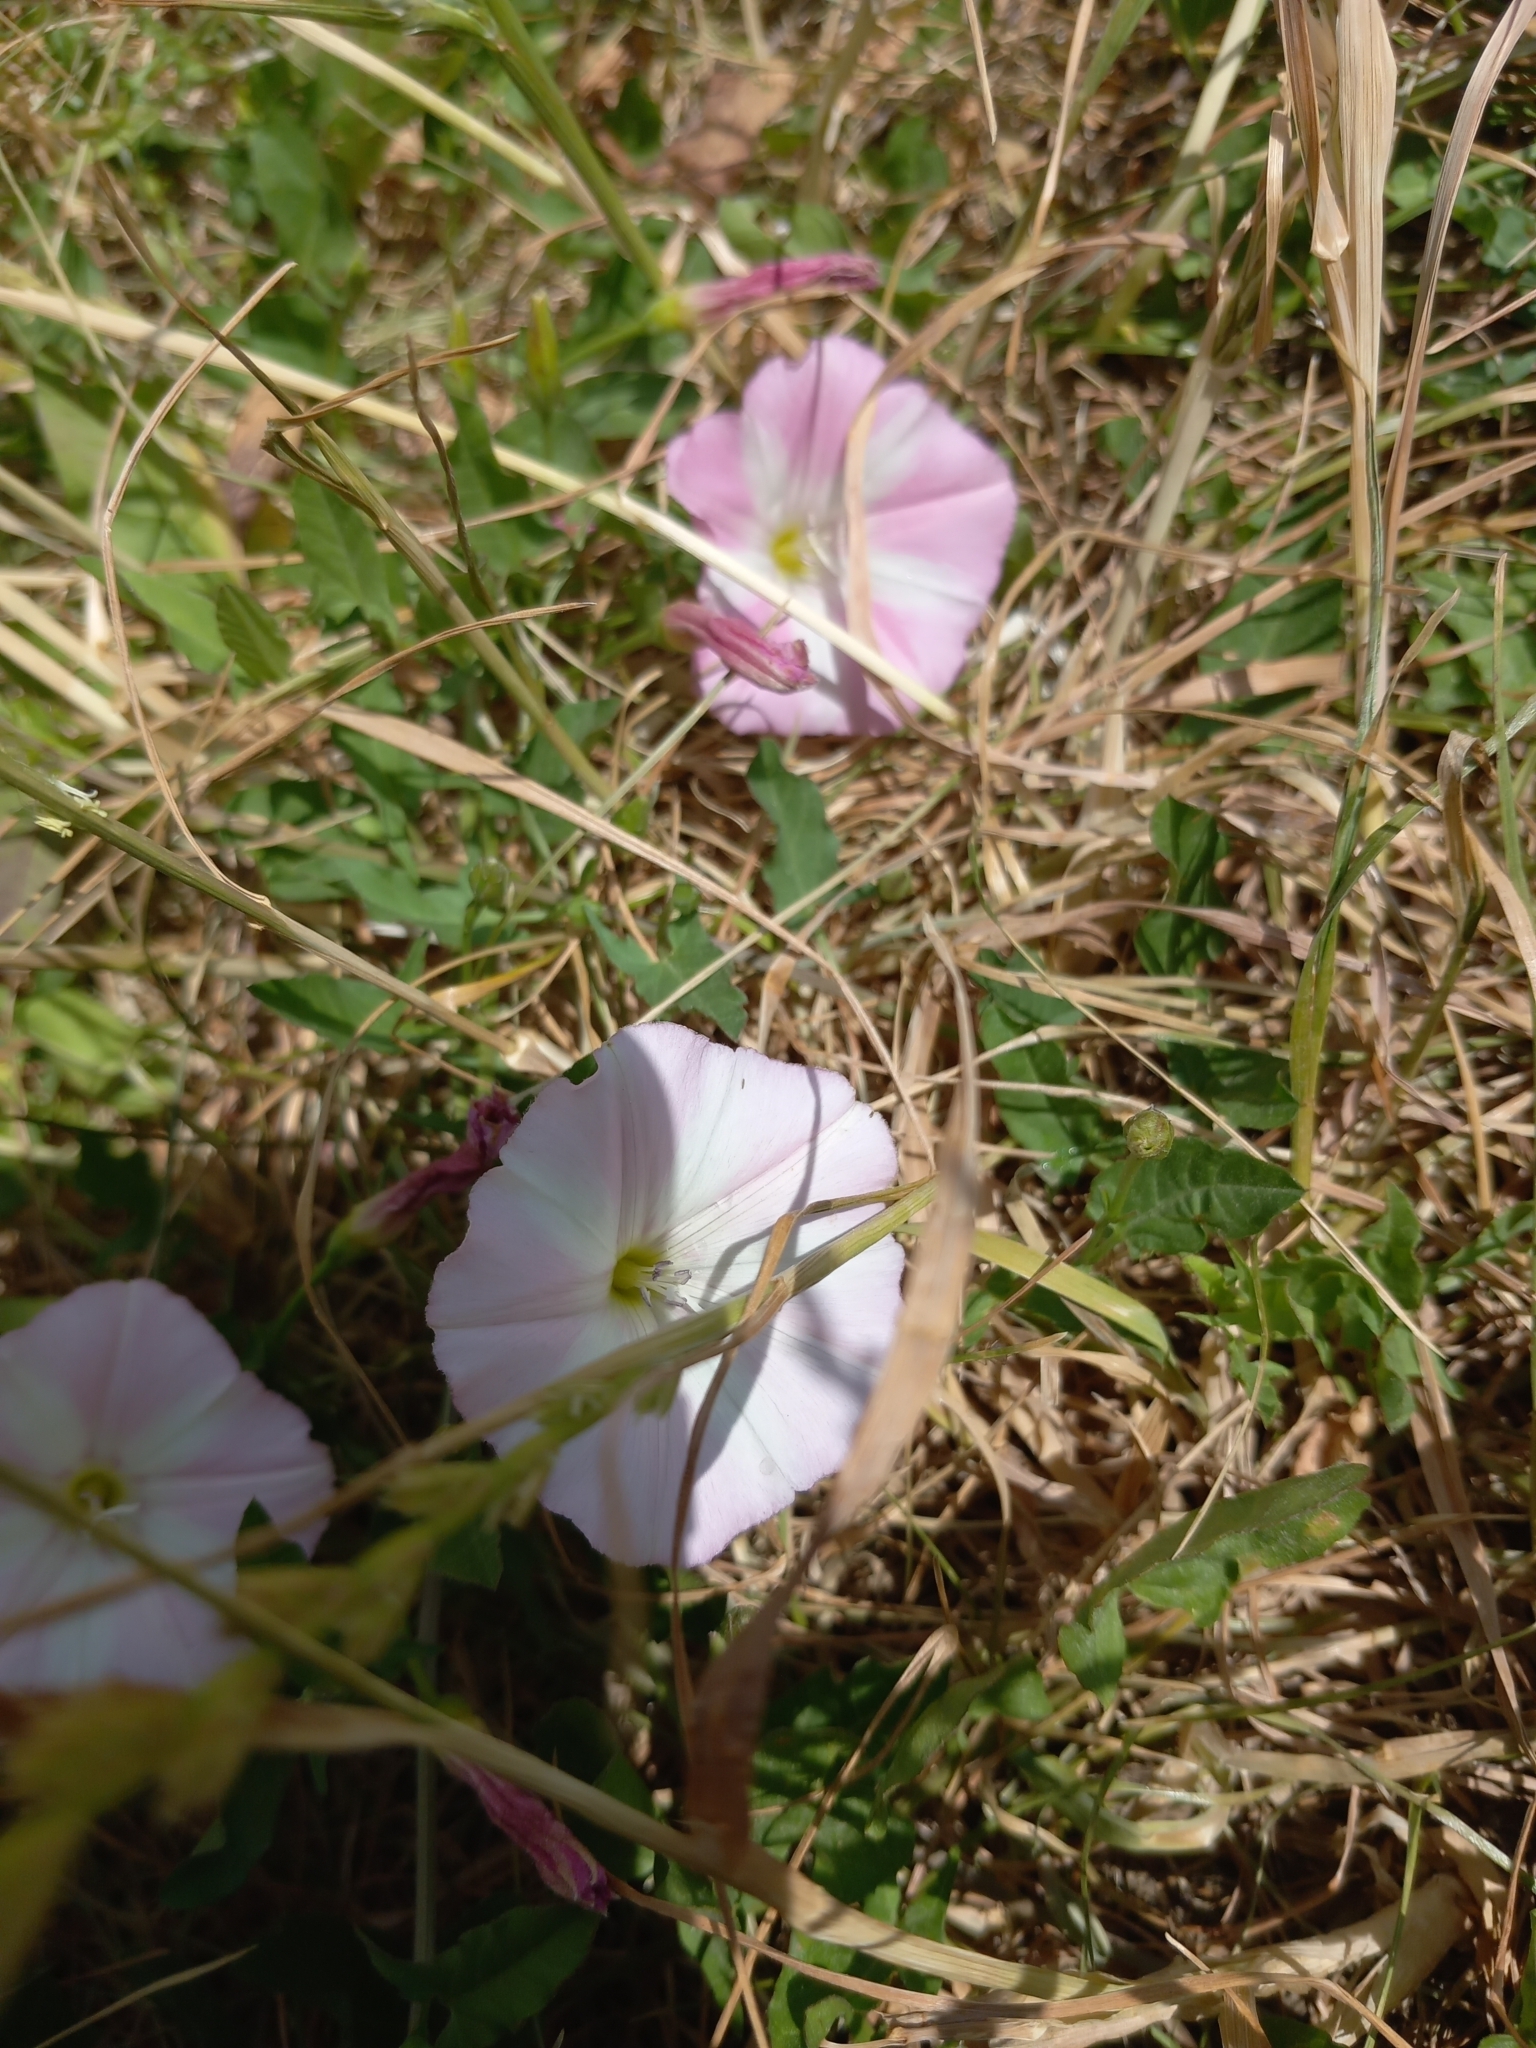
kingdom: Plantae
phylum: Tracheophyta
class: Magnoliopsida
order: Solanales
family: Convolvulaceae
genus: Convolvulus
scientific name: Convolvulus arvensis
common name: Field bindweed
